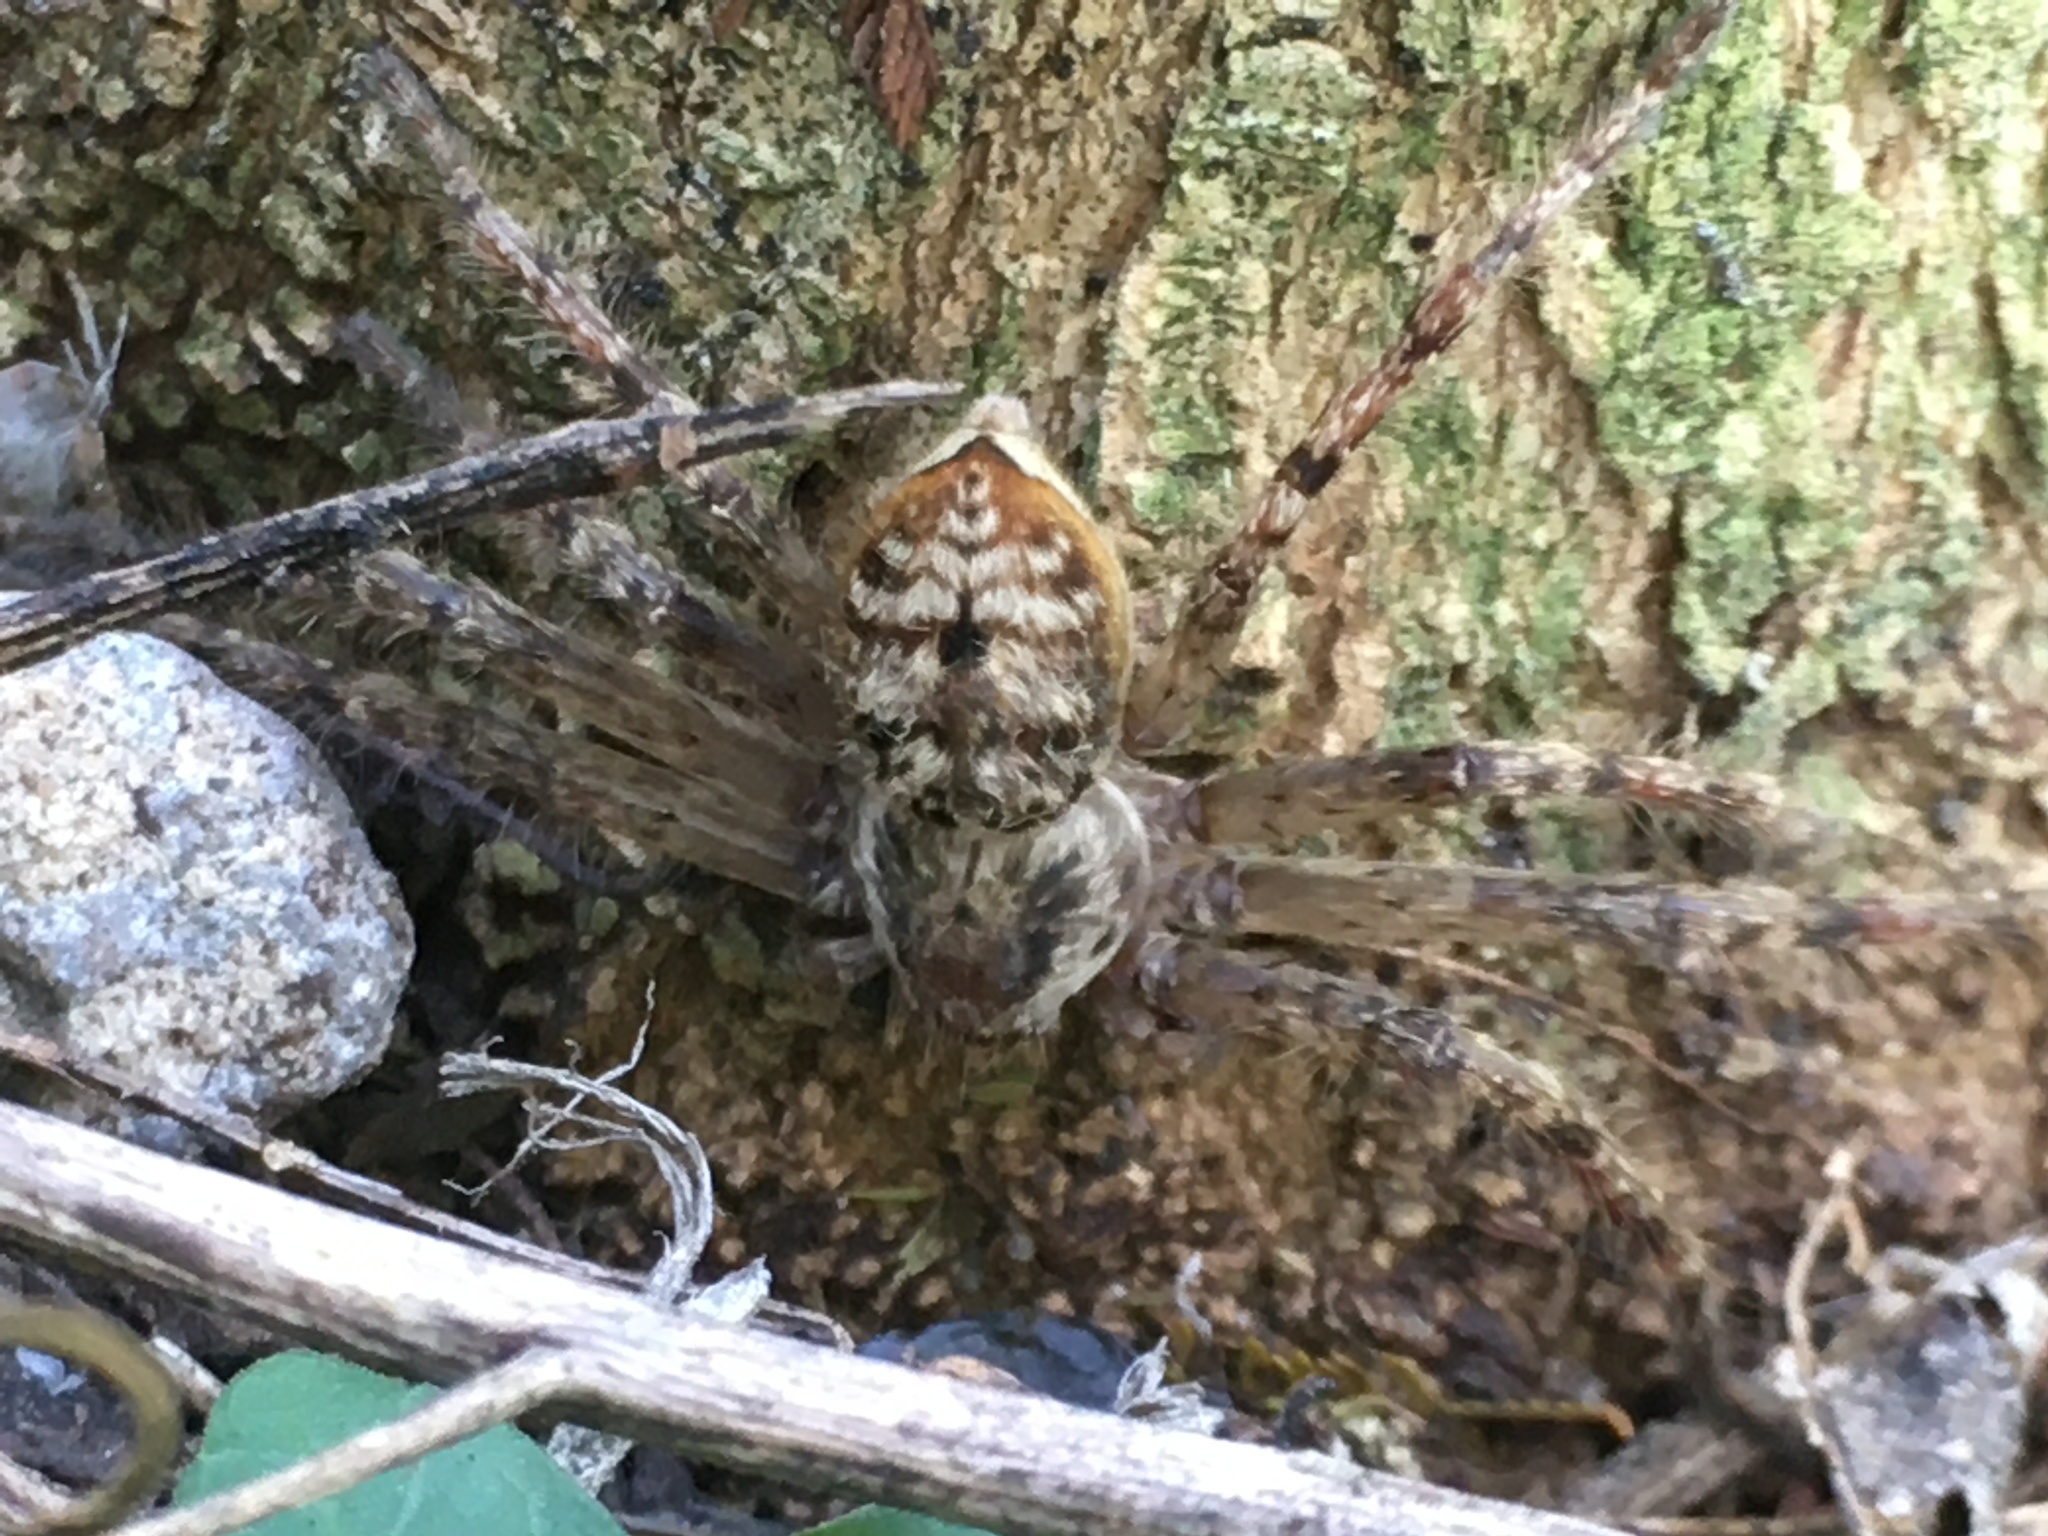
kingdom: Animalia
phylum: Arthropoda
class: Arachnida
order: Araneae
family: Sparassidae
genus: Polybetes
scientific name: Polybetes rapidus
